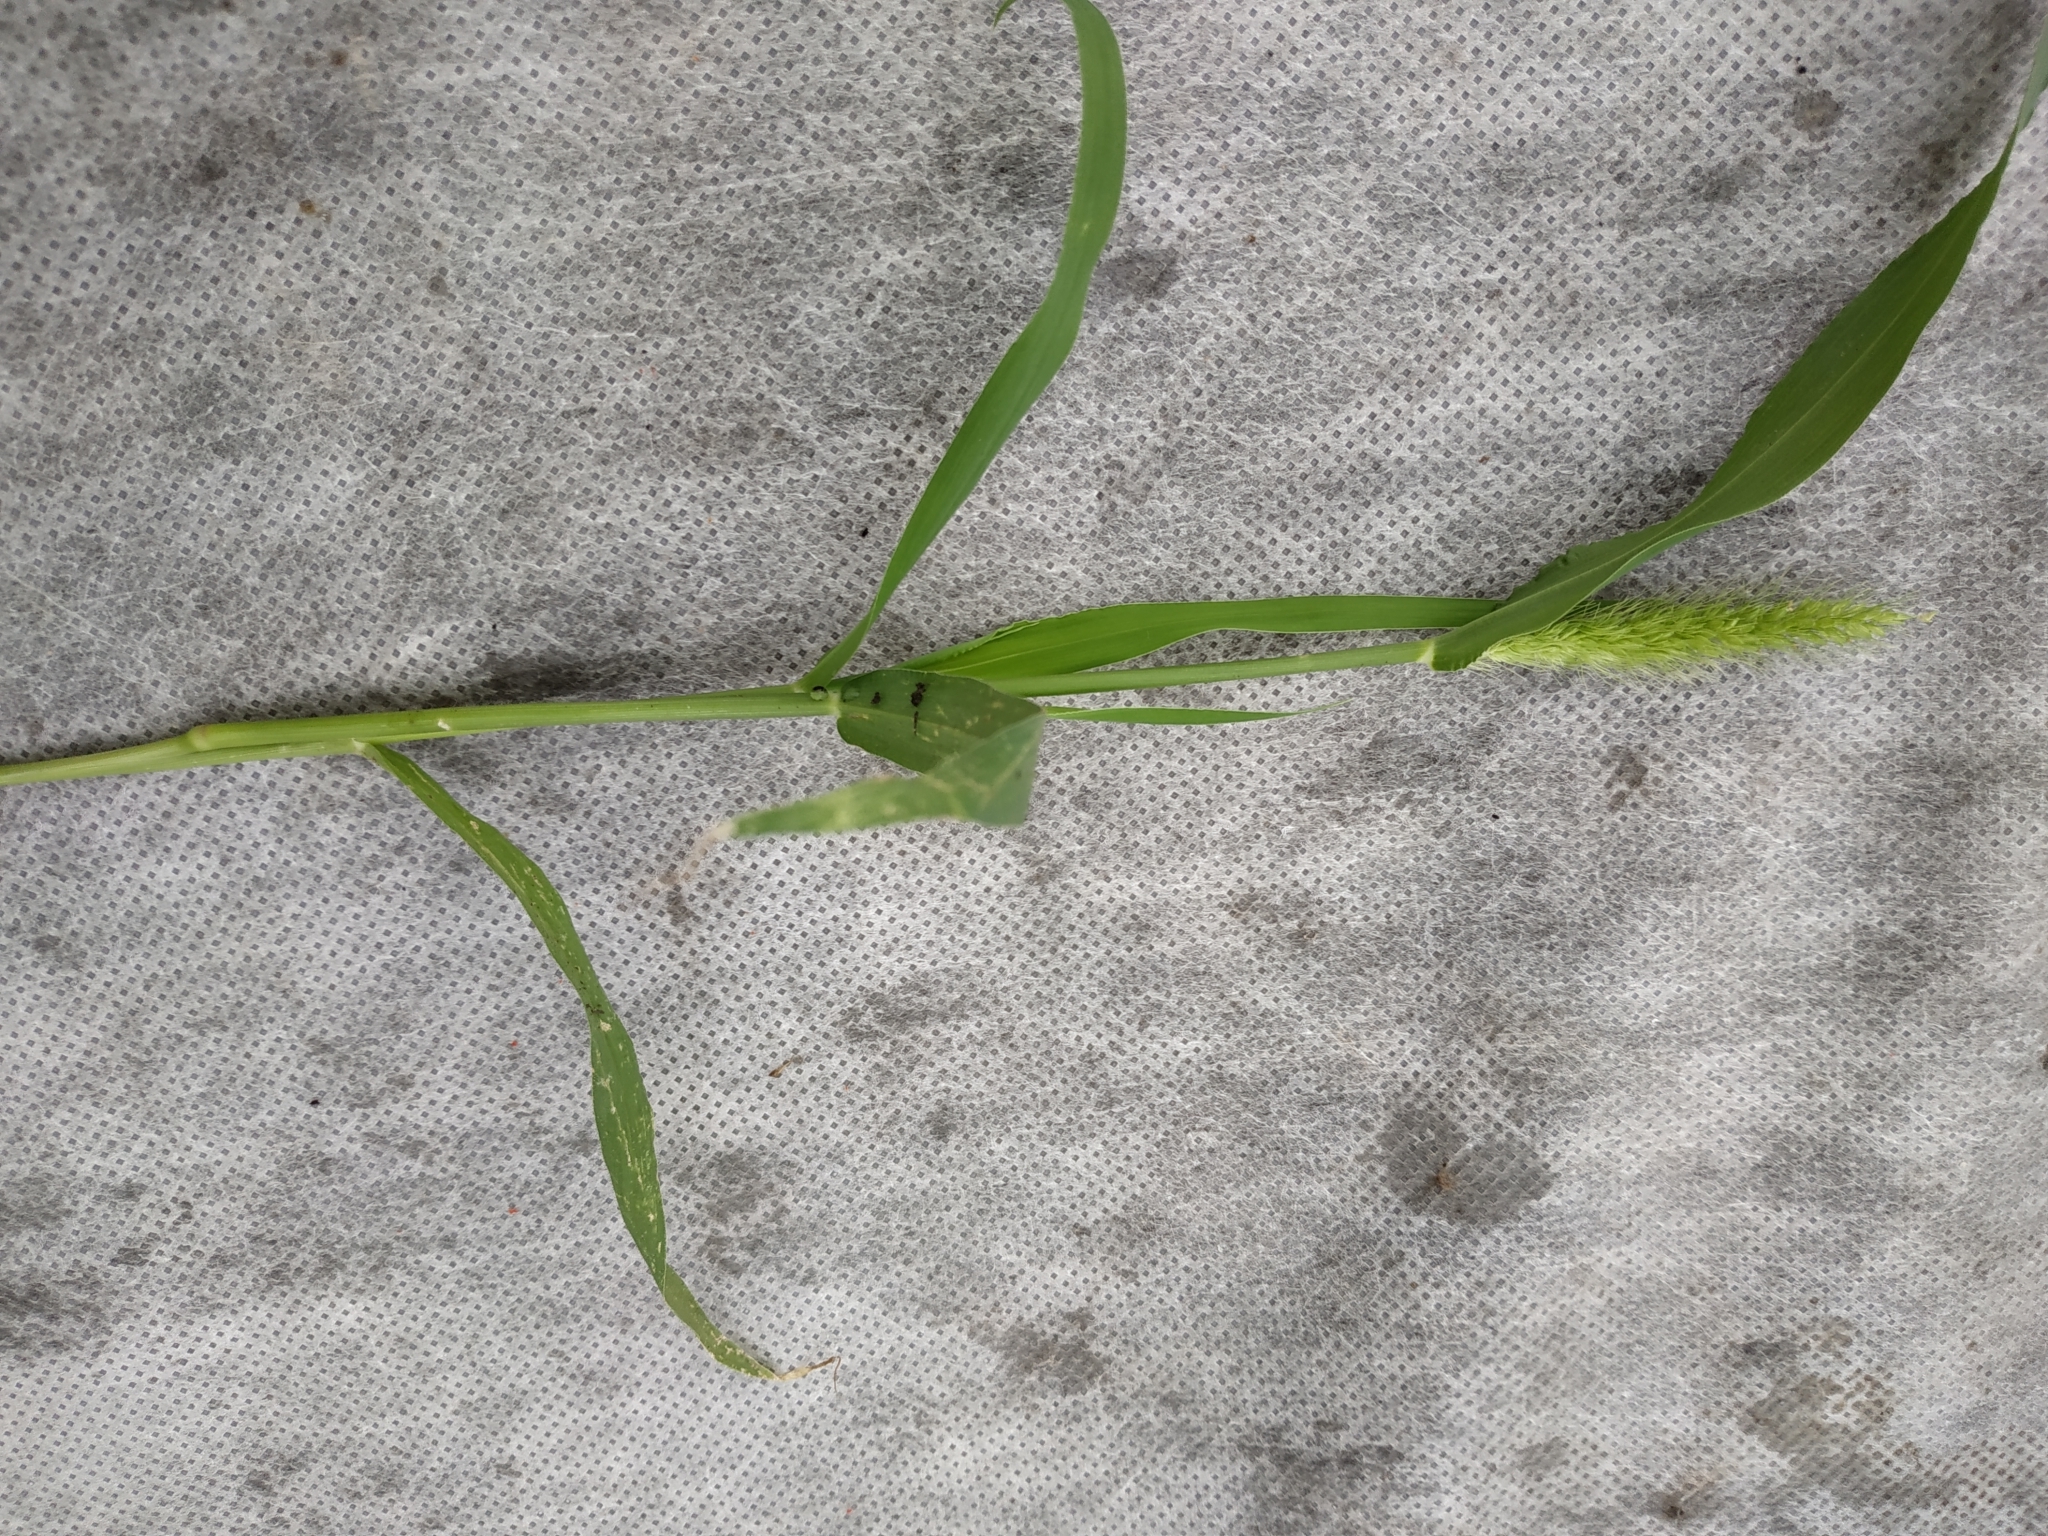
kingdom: Plantae
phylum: Tracheophyta
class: Liliopsida
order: Poales
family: Poaceae
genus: Setaria
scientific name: Setaria viridis
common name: Green bristlegrass
